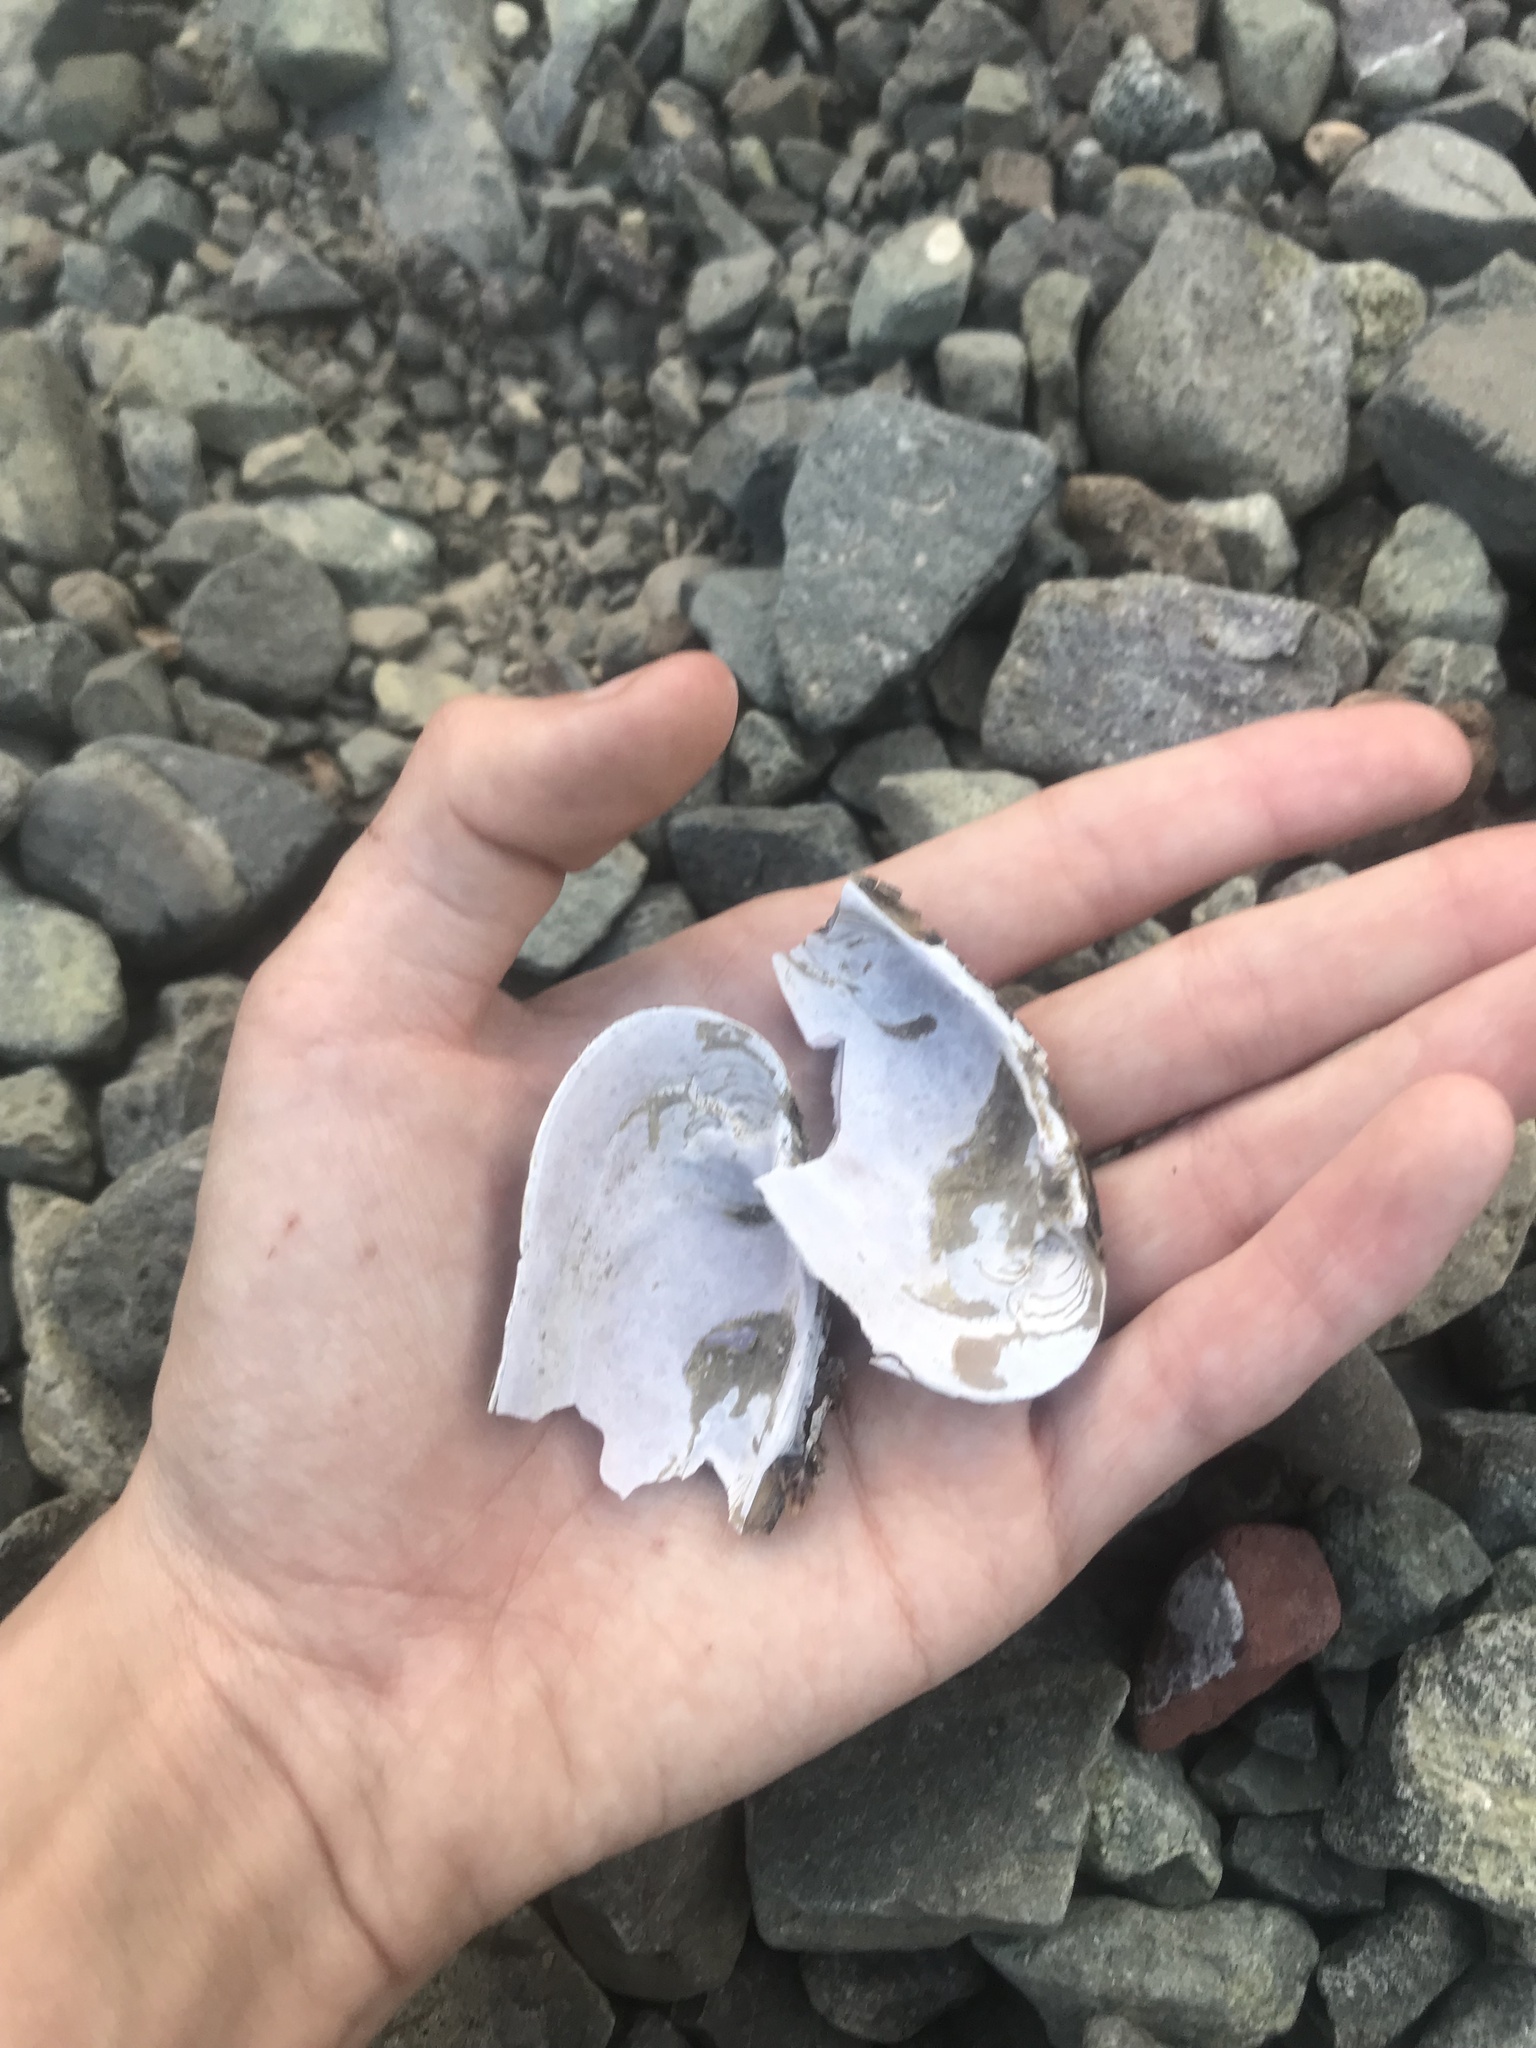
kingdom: Animalia
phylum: Mollusca
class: Bivalvia
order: Unionida
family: Margaritiferidae
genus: Margaritifera
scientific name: Margaritifera falcata
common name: Western pearlshell
